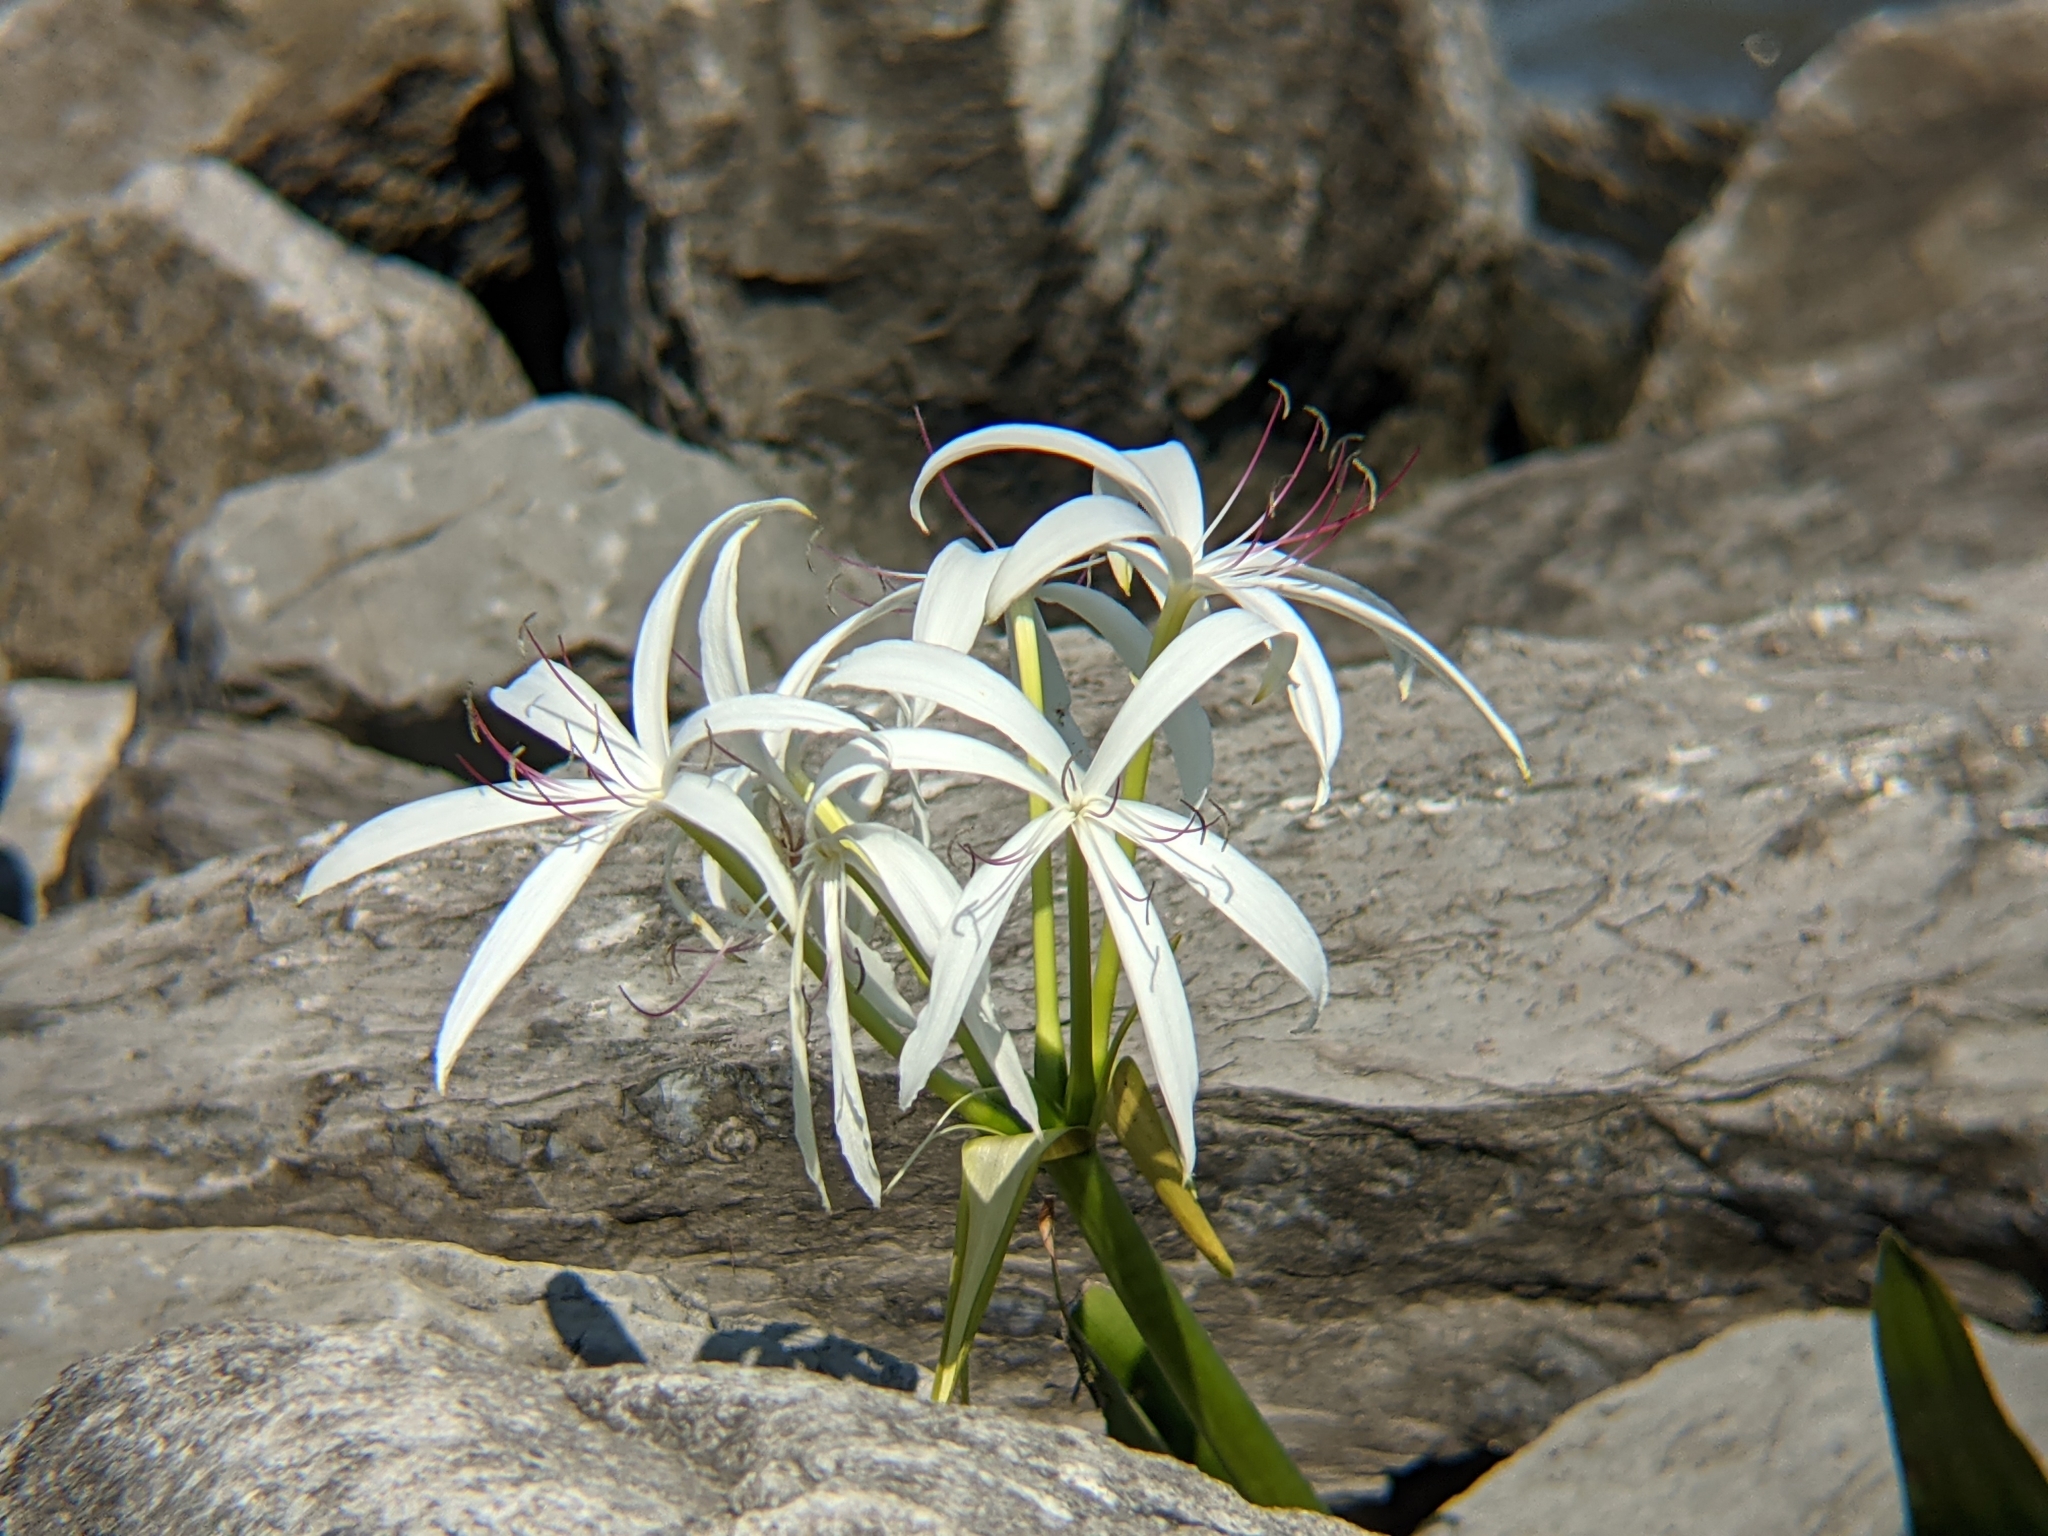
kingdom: Plantae
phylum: Tracheophyta
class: Liliopsida
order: Asparagales
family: Amaryllidaceae
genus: Crinum
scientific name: Crinum americanum
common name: Florida swamp-lily
